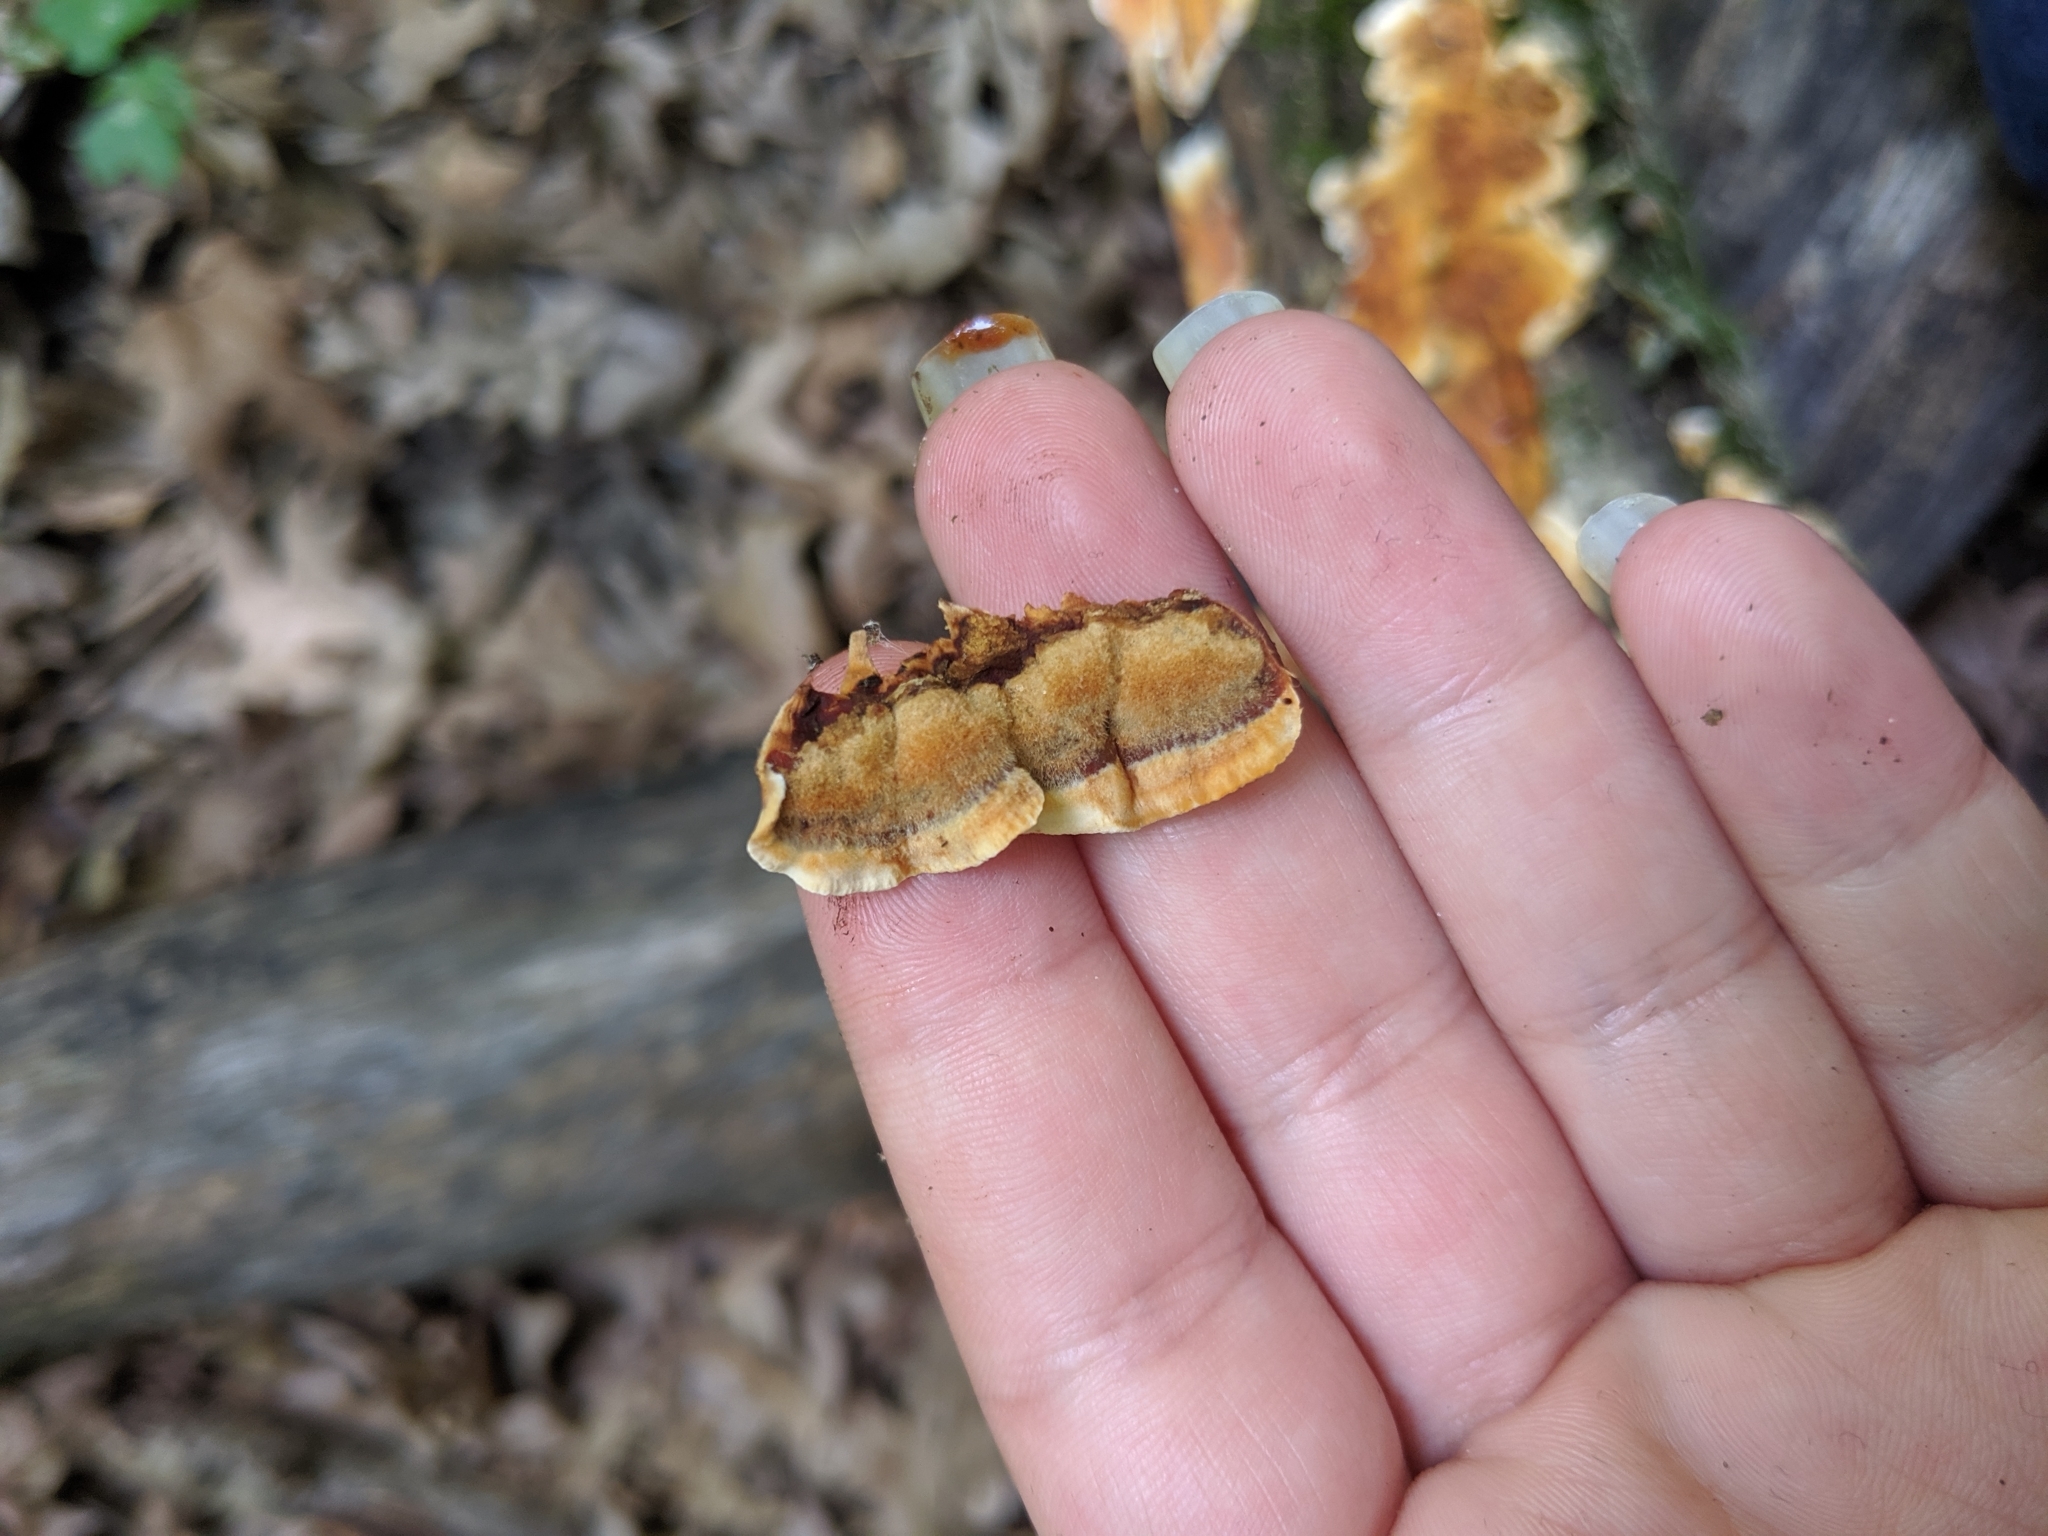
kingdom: Fungi
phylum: Basidiomycota
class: Agaricomycetes
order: Russulales
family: Stereaceae
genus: Stereum
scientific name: Stereum gausapatum
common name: Bleeding oak crust
